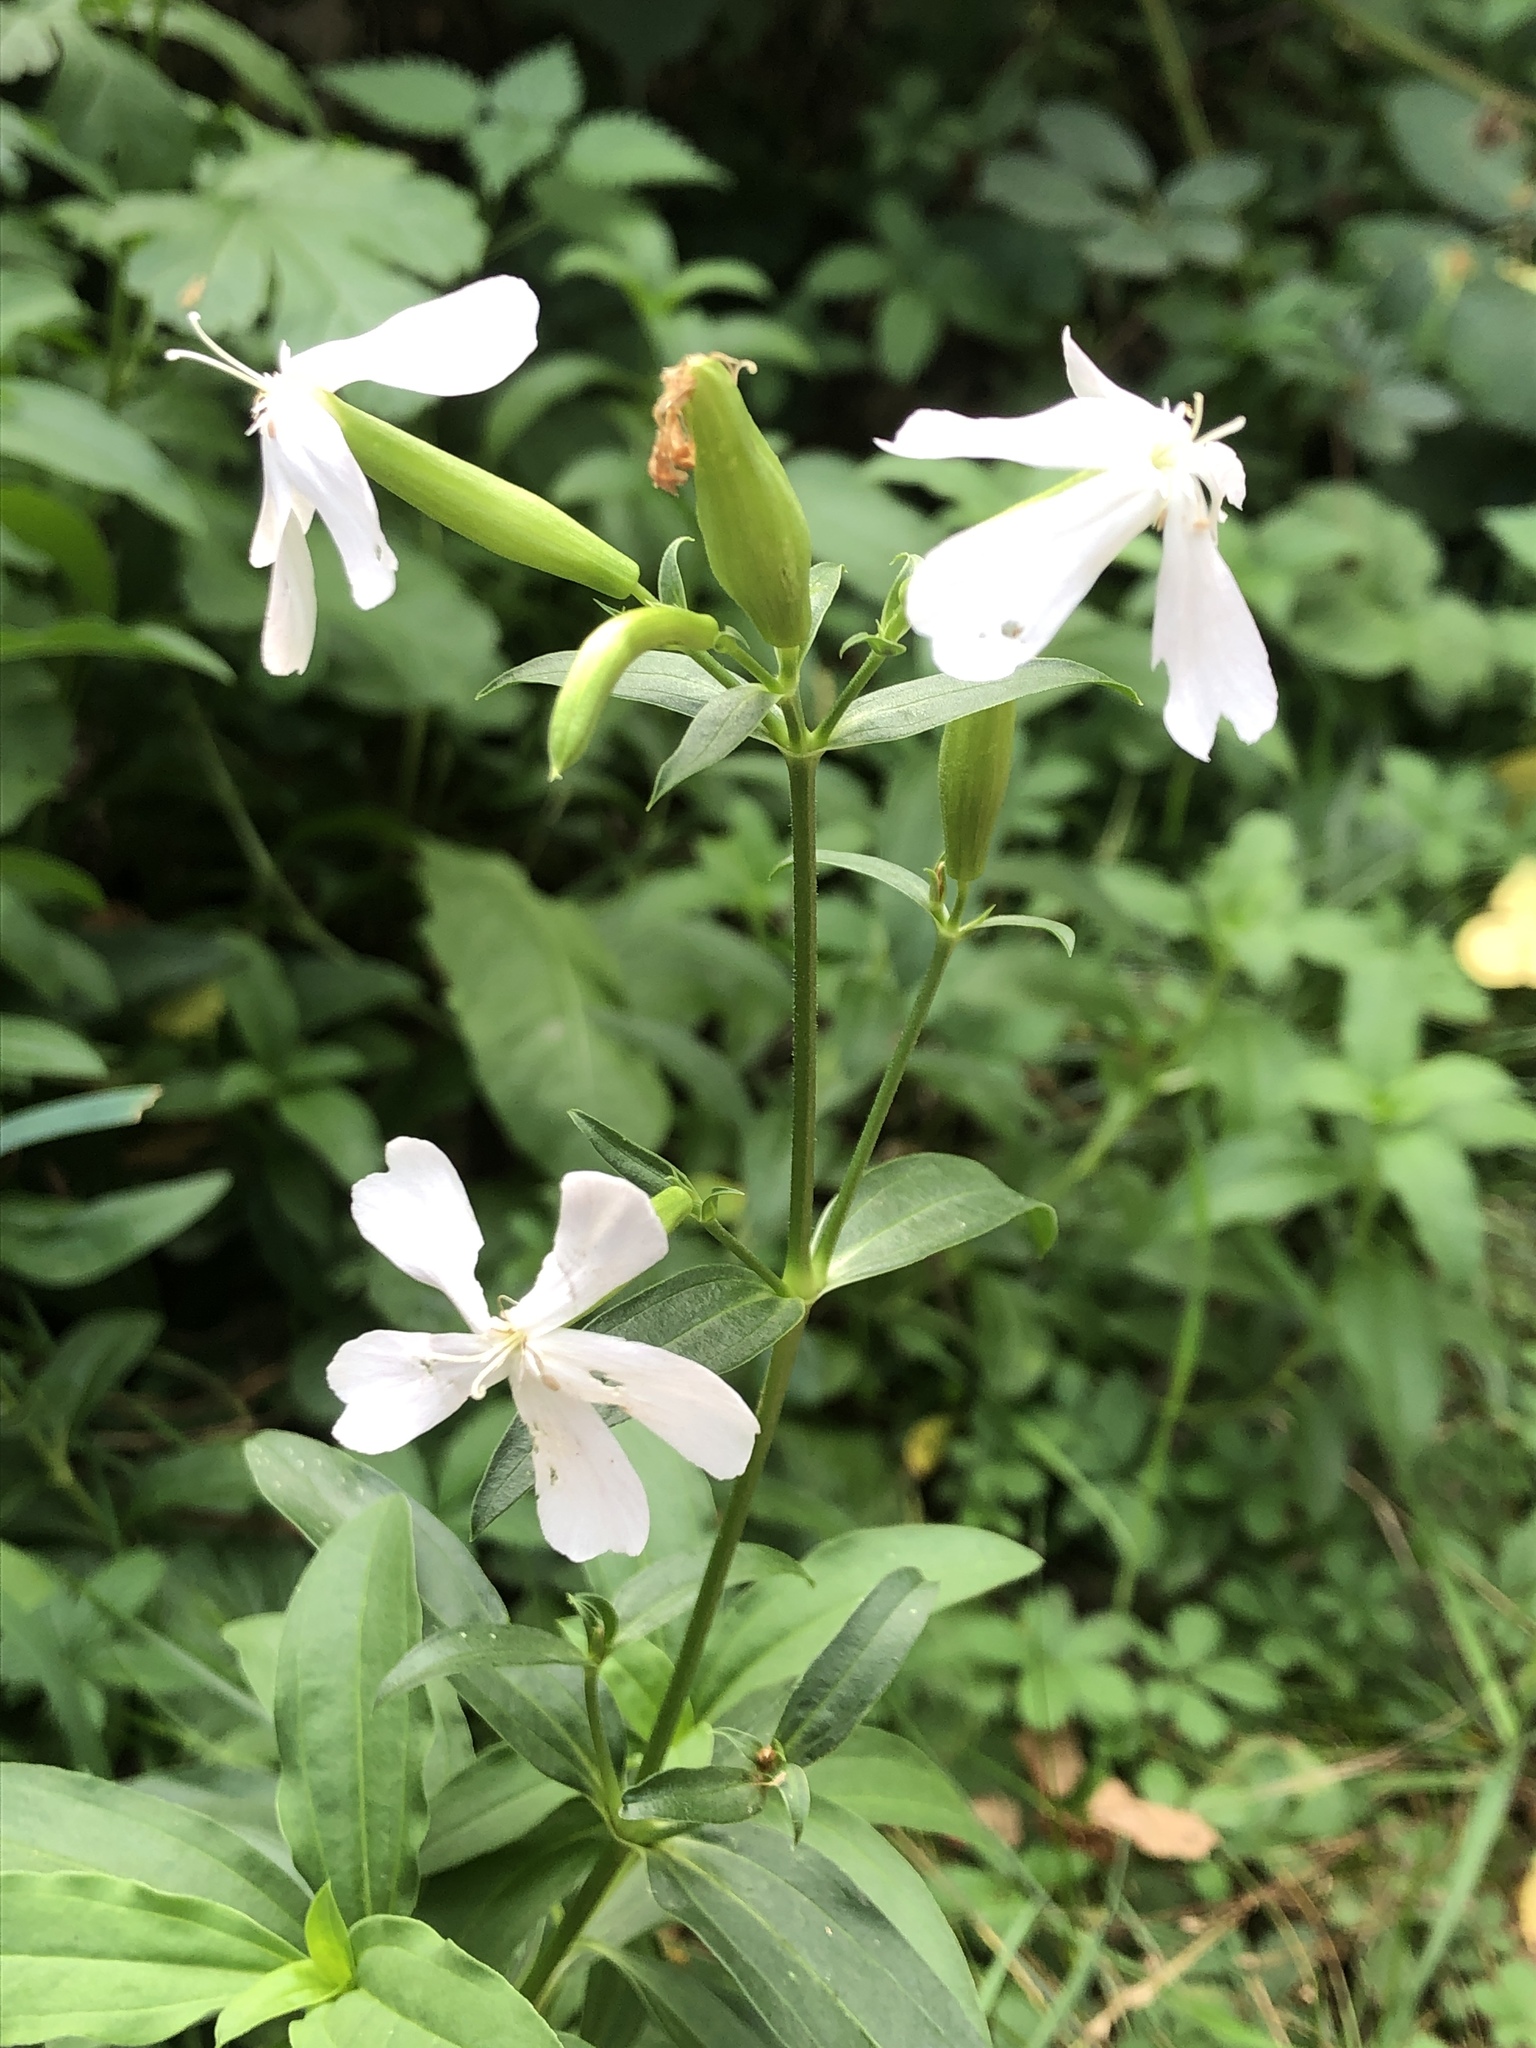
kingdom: Plantae
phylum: Tracheophyta
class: Magnoliopsida
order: Caryophyllales
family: Caryophyllaceae
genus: Saponaria
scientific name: Saponaria officinalis
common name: Soapwort
